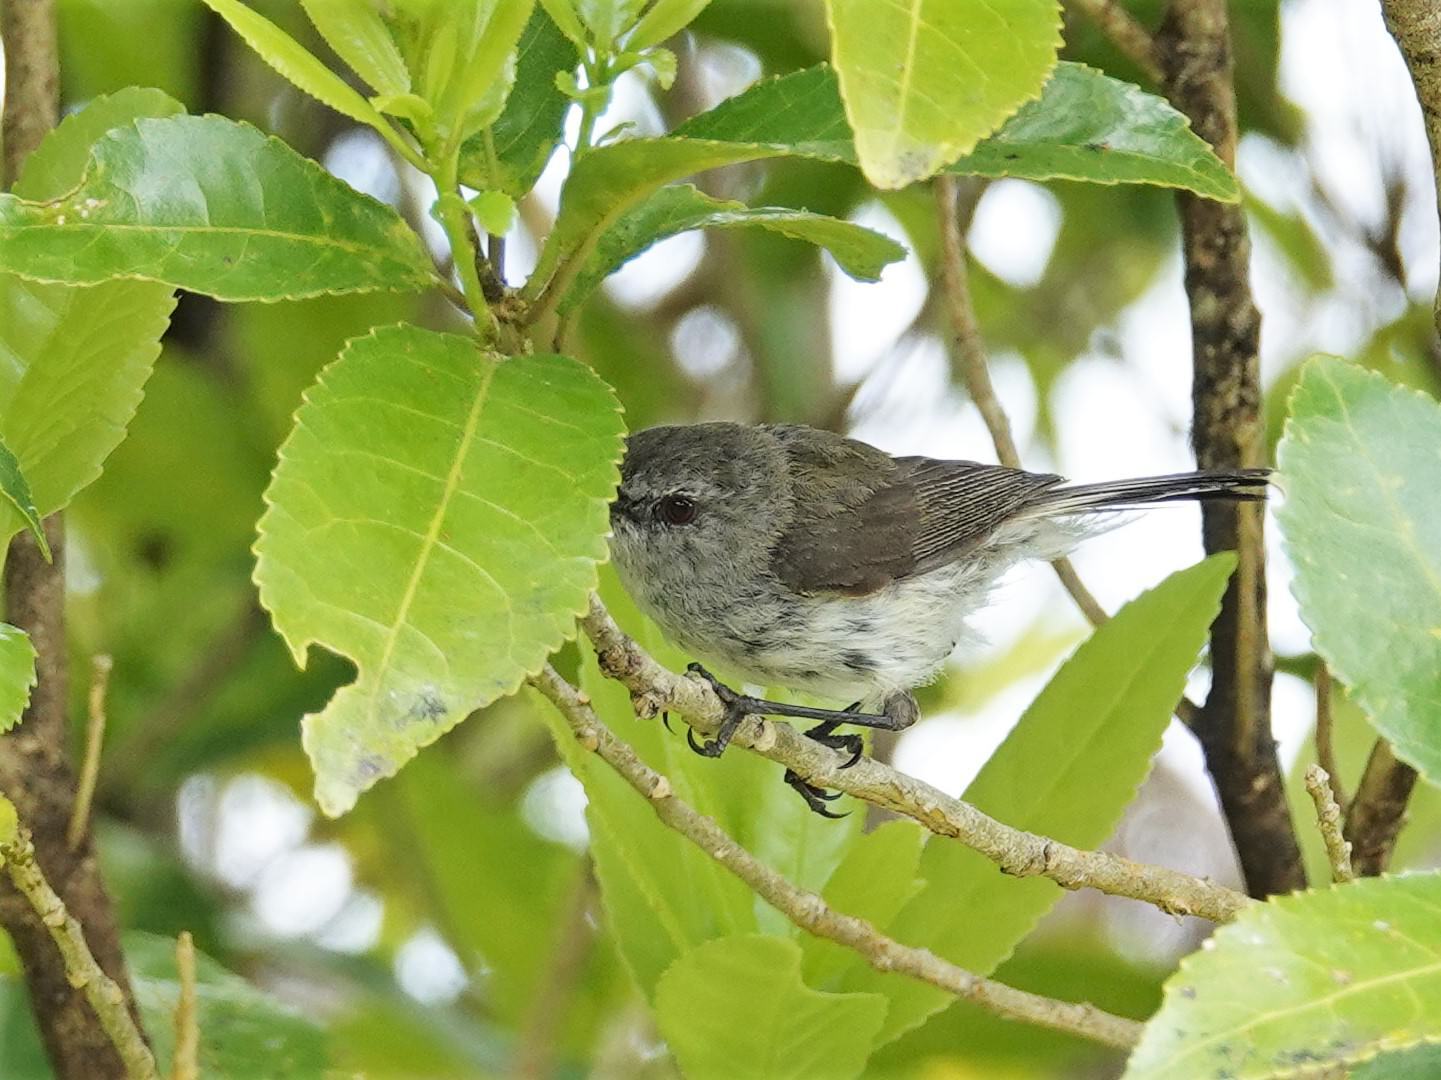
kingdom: Animalia
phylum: Chordata
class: Aves
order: Passeriformes
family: Acanthizidae
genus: Gerygone
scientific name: Gerygone igata
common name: Grey gerygone
